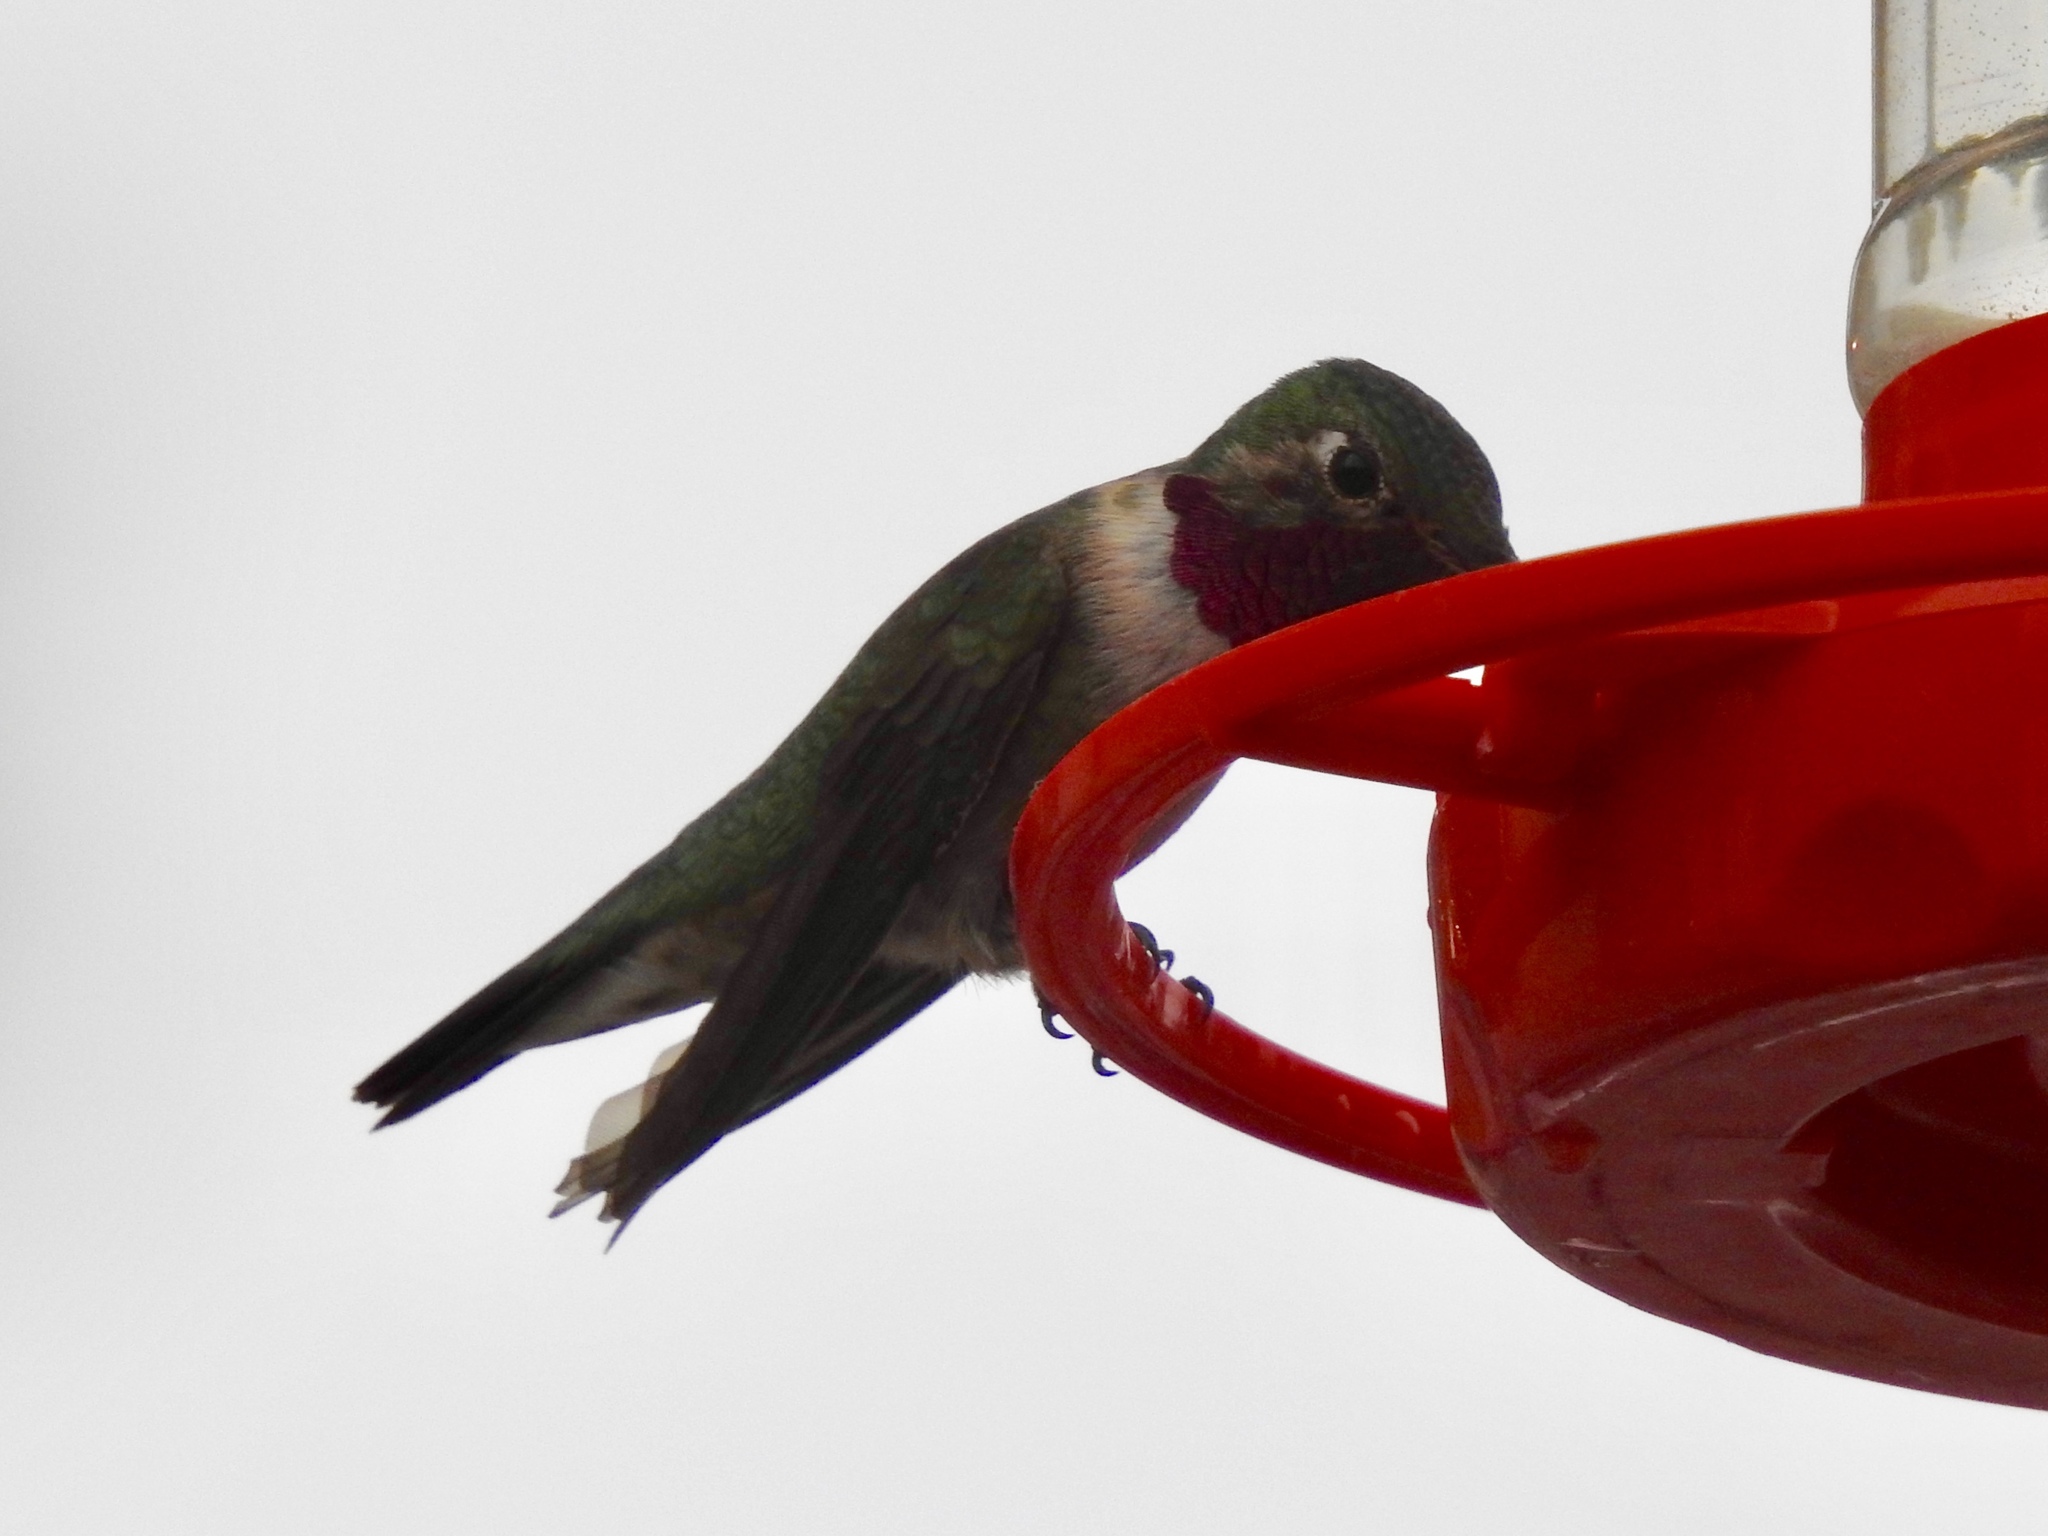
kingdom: Animalia
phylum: Chordata
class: Aves
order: Apodiformes
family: Trochilidae
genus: Selasphorus
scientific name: Selasphorus platycercus
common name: Broad-tailed hummingbird
